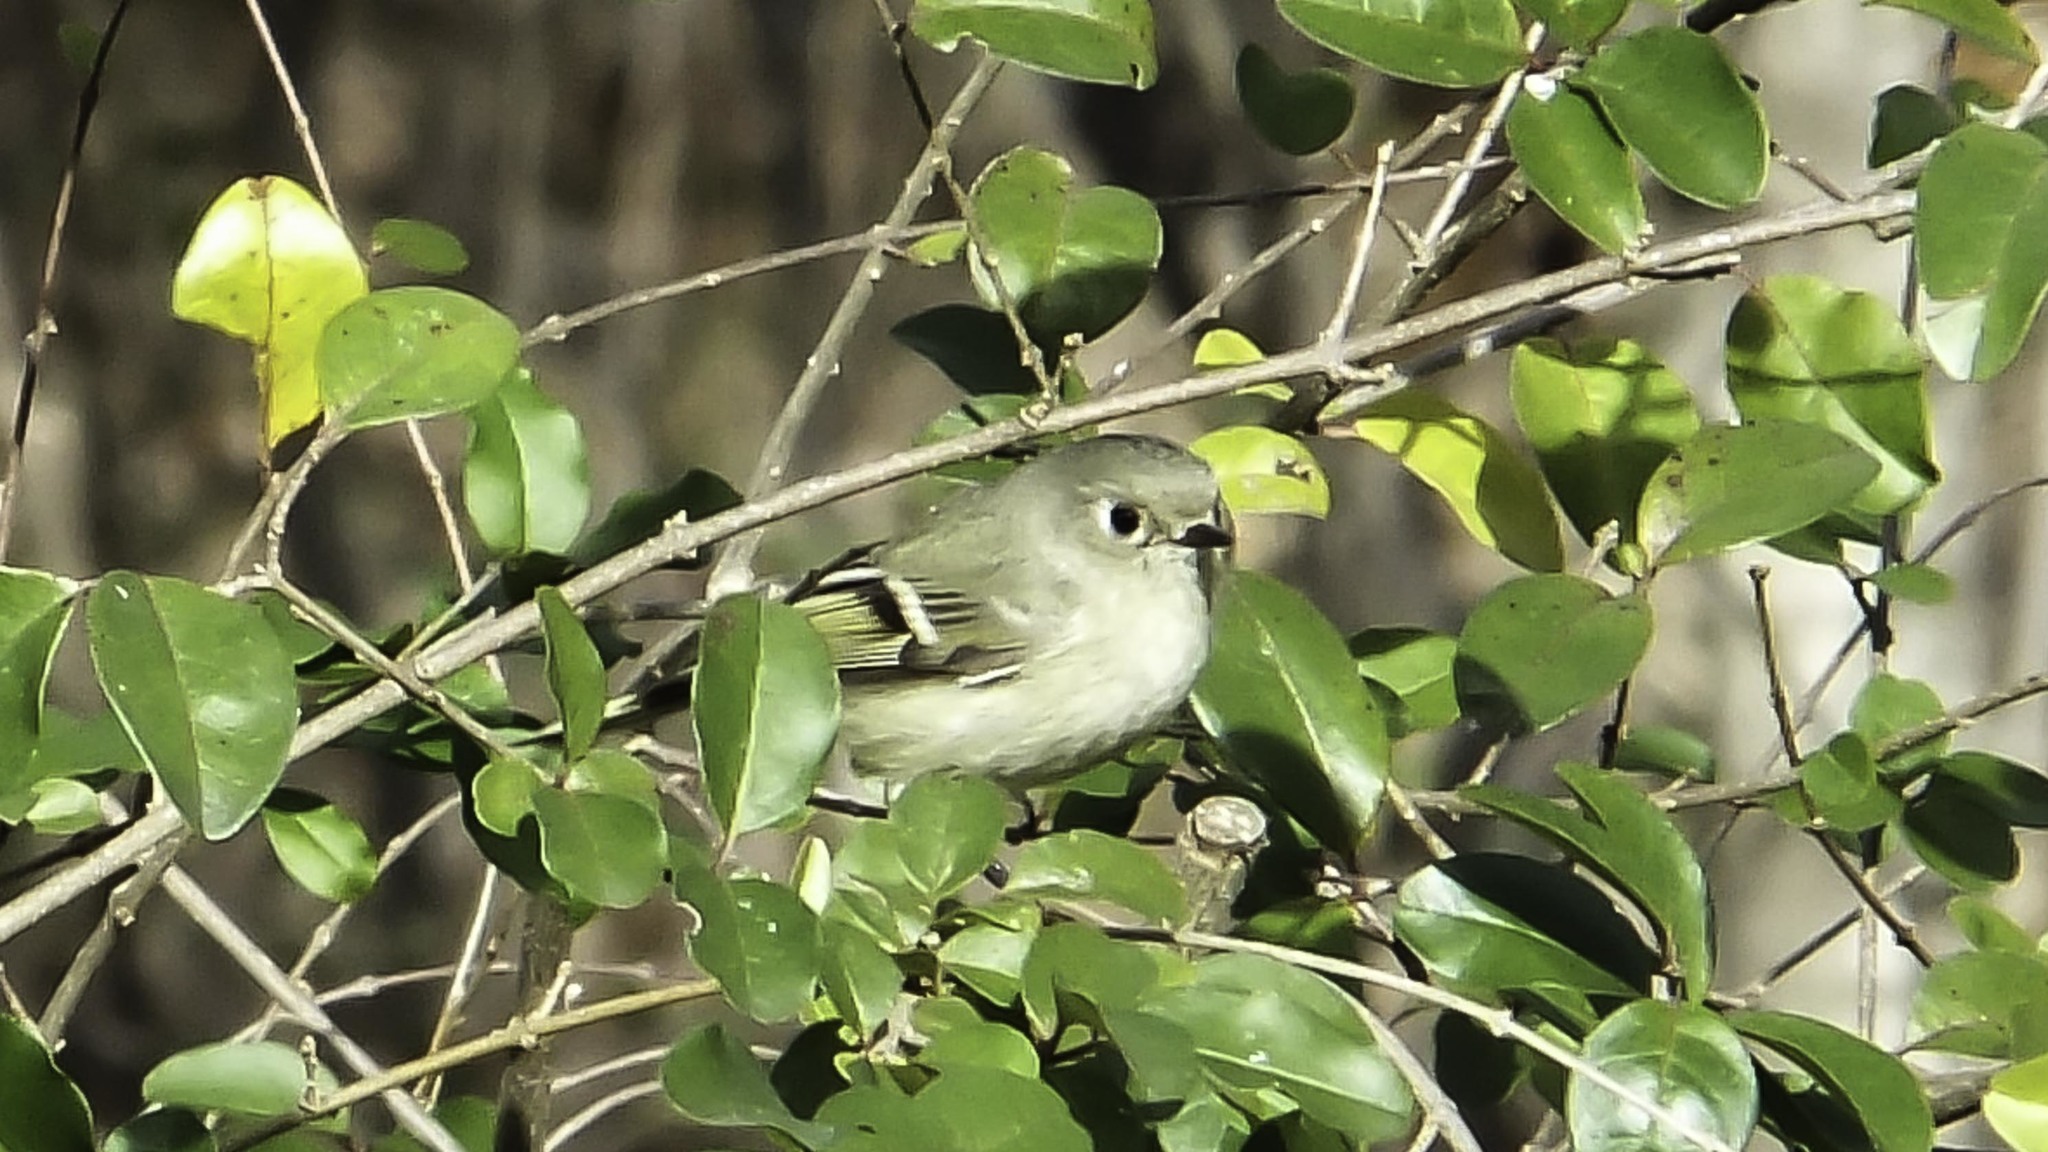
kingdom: Animalia
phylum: Chordata
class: Aves
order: Passeriformes
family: Regulidae
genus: Regulus
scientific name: Regulus calendula
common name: Ruby-crowned kinglet
